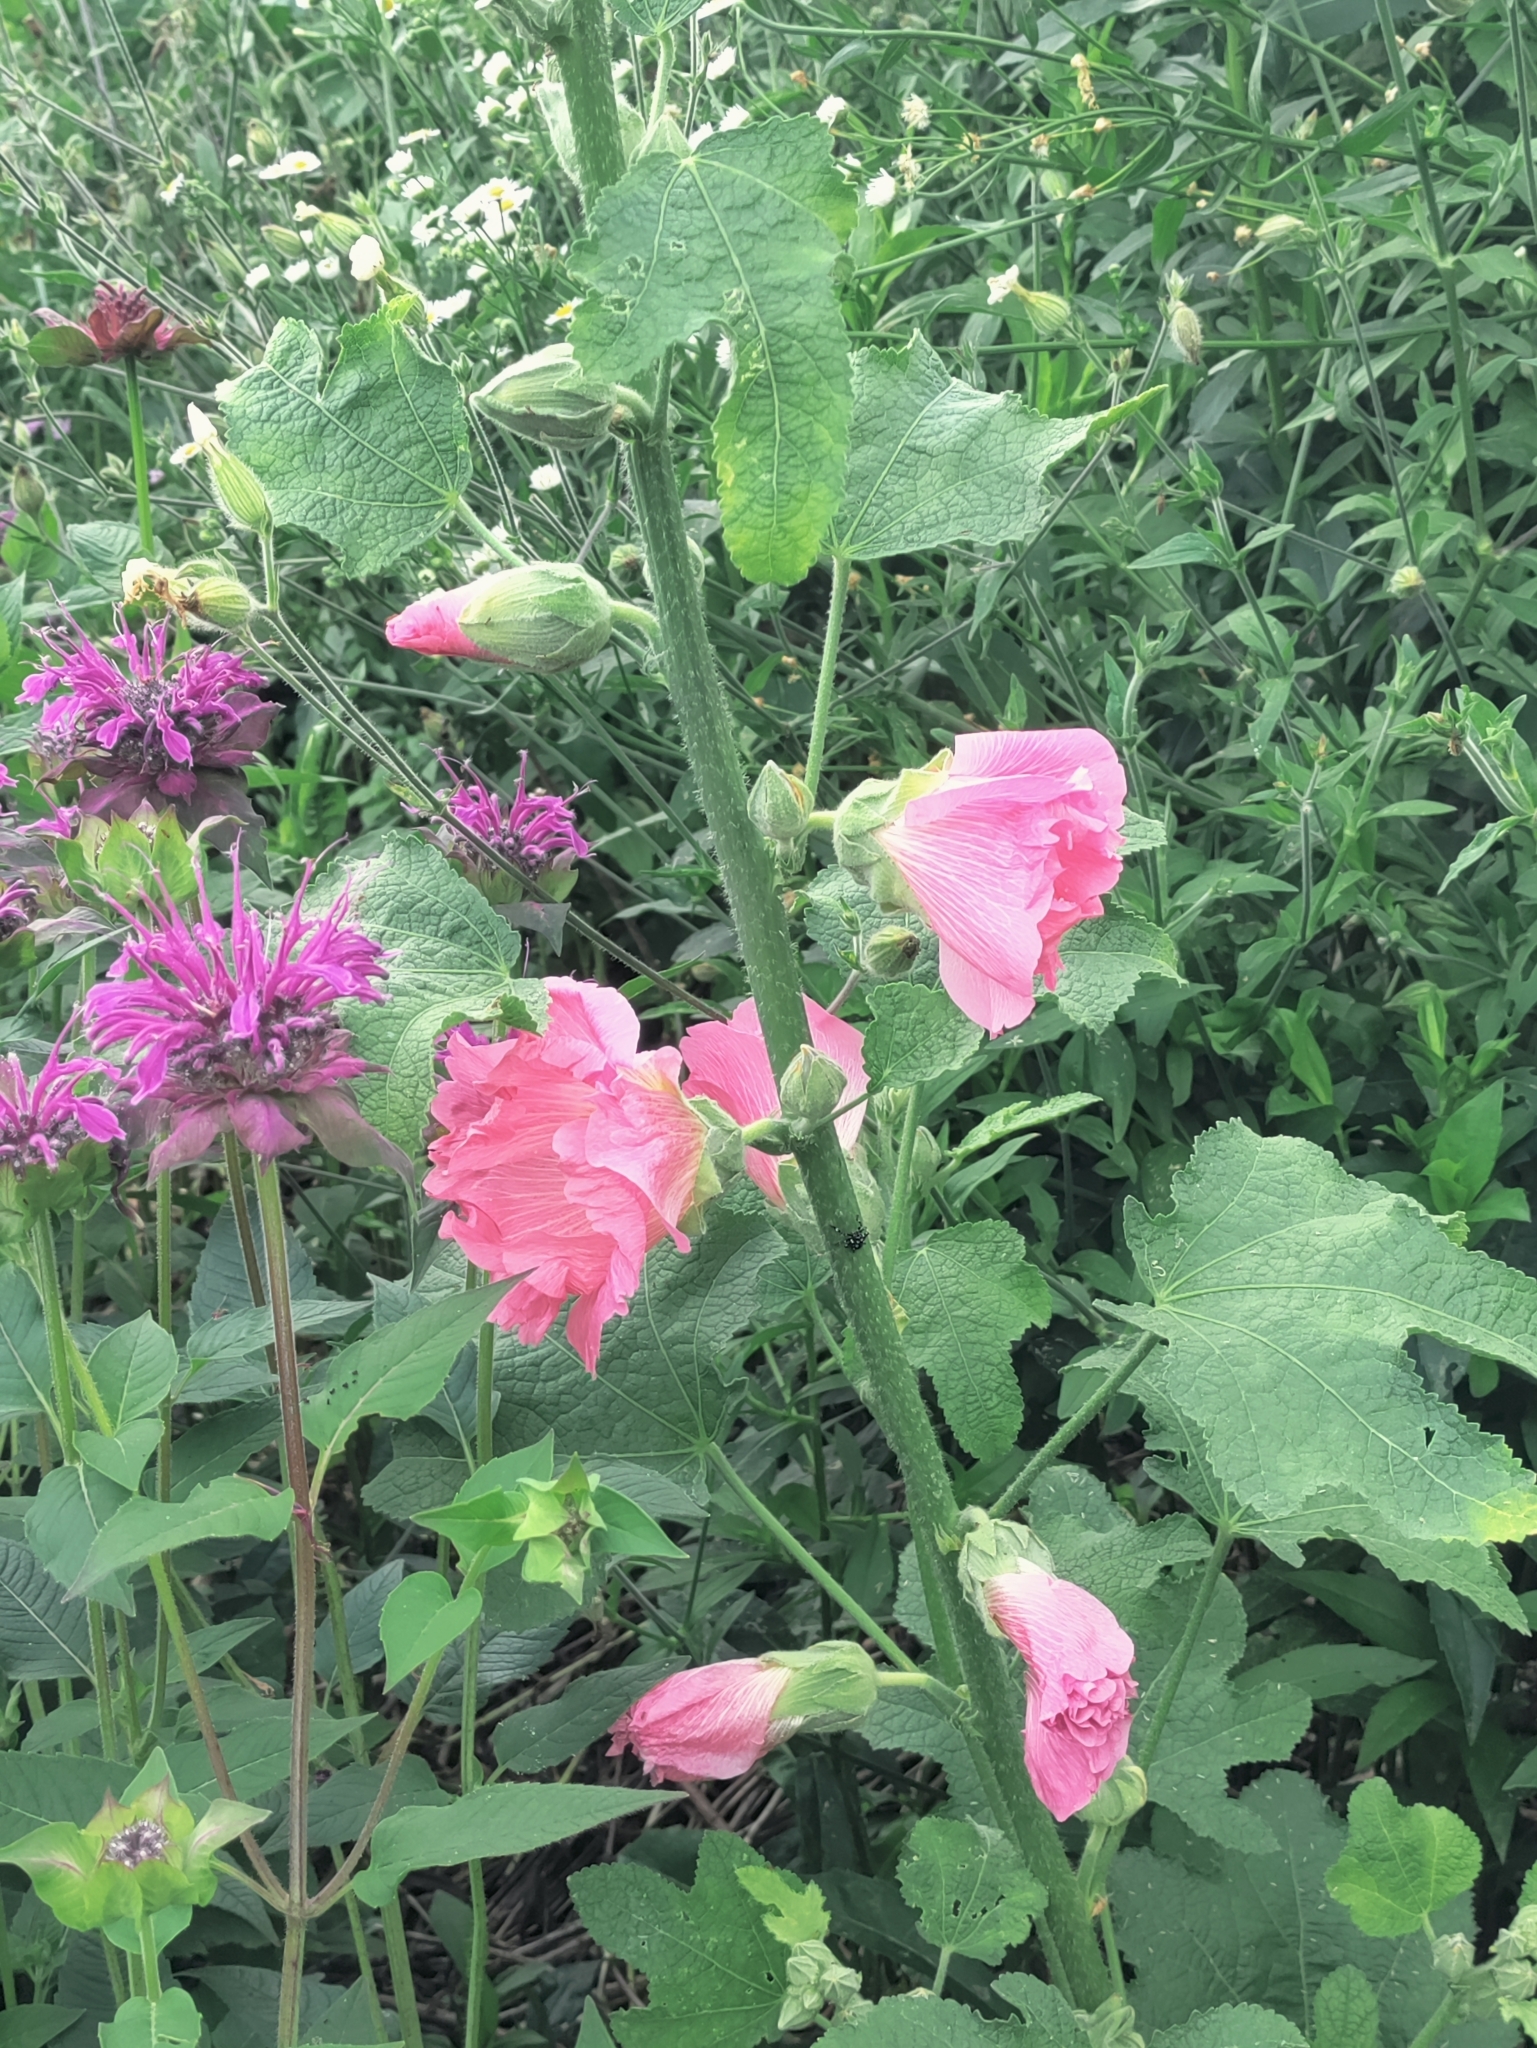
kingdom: Plantae
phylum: Tracheophyta
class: Magnoliopsida
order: Malvales
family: Malvaceae
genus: Alcea
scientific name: Alcea rosea
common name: Hollyhock
